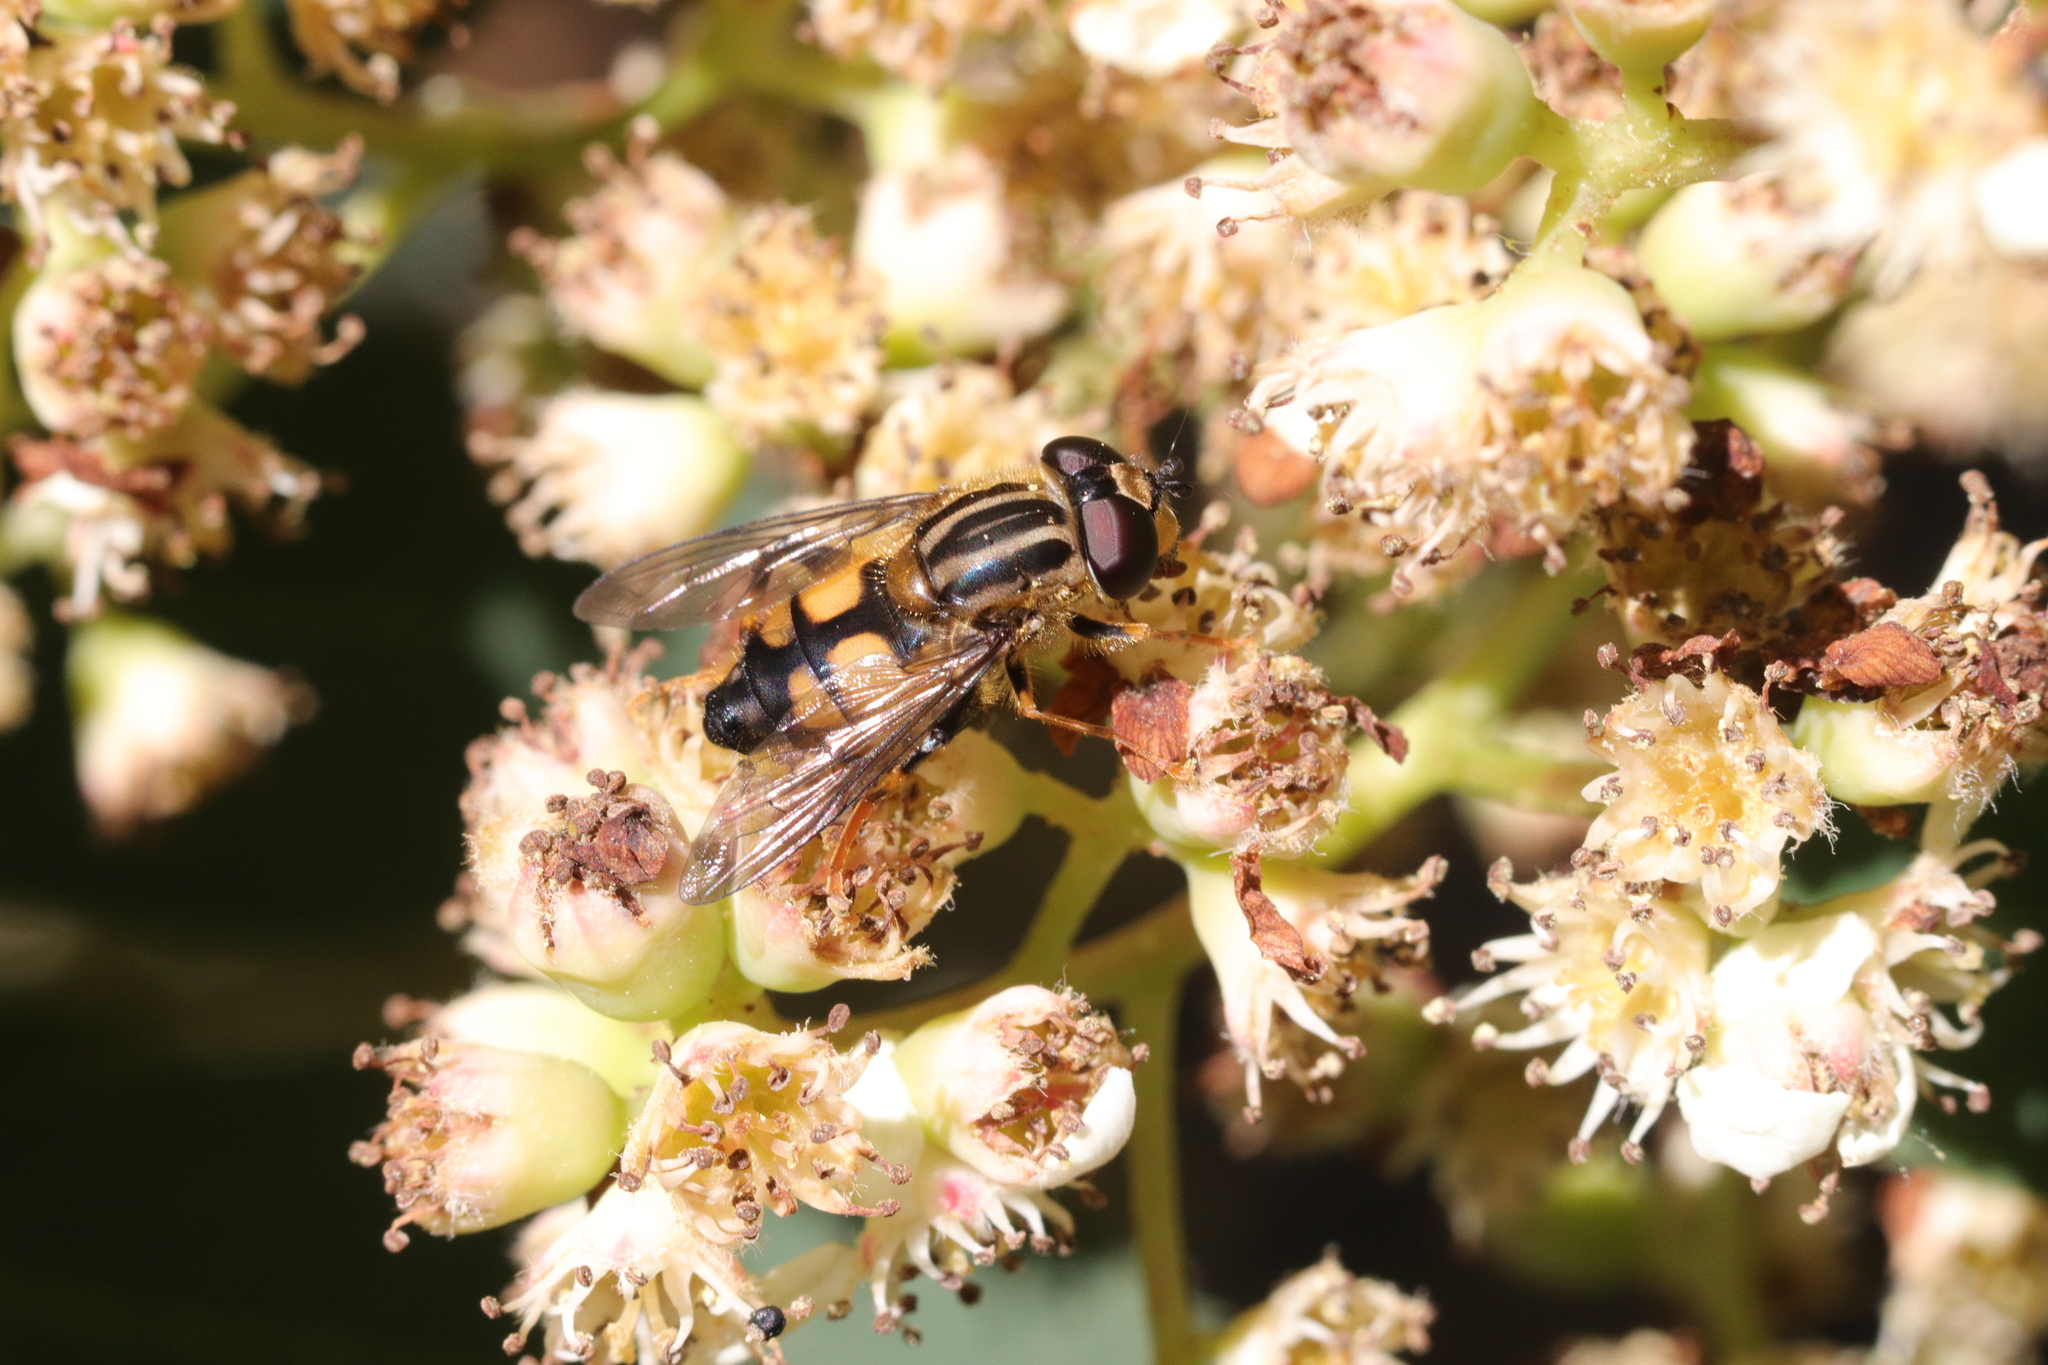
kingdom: Animalia
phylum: Arthropoda
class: Insecta
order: Diptera
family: Syrphidae
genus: Helophilus
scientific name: Helophilus antipodus
